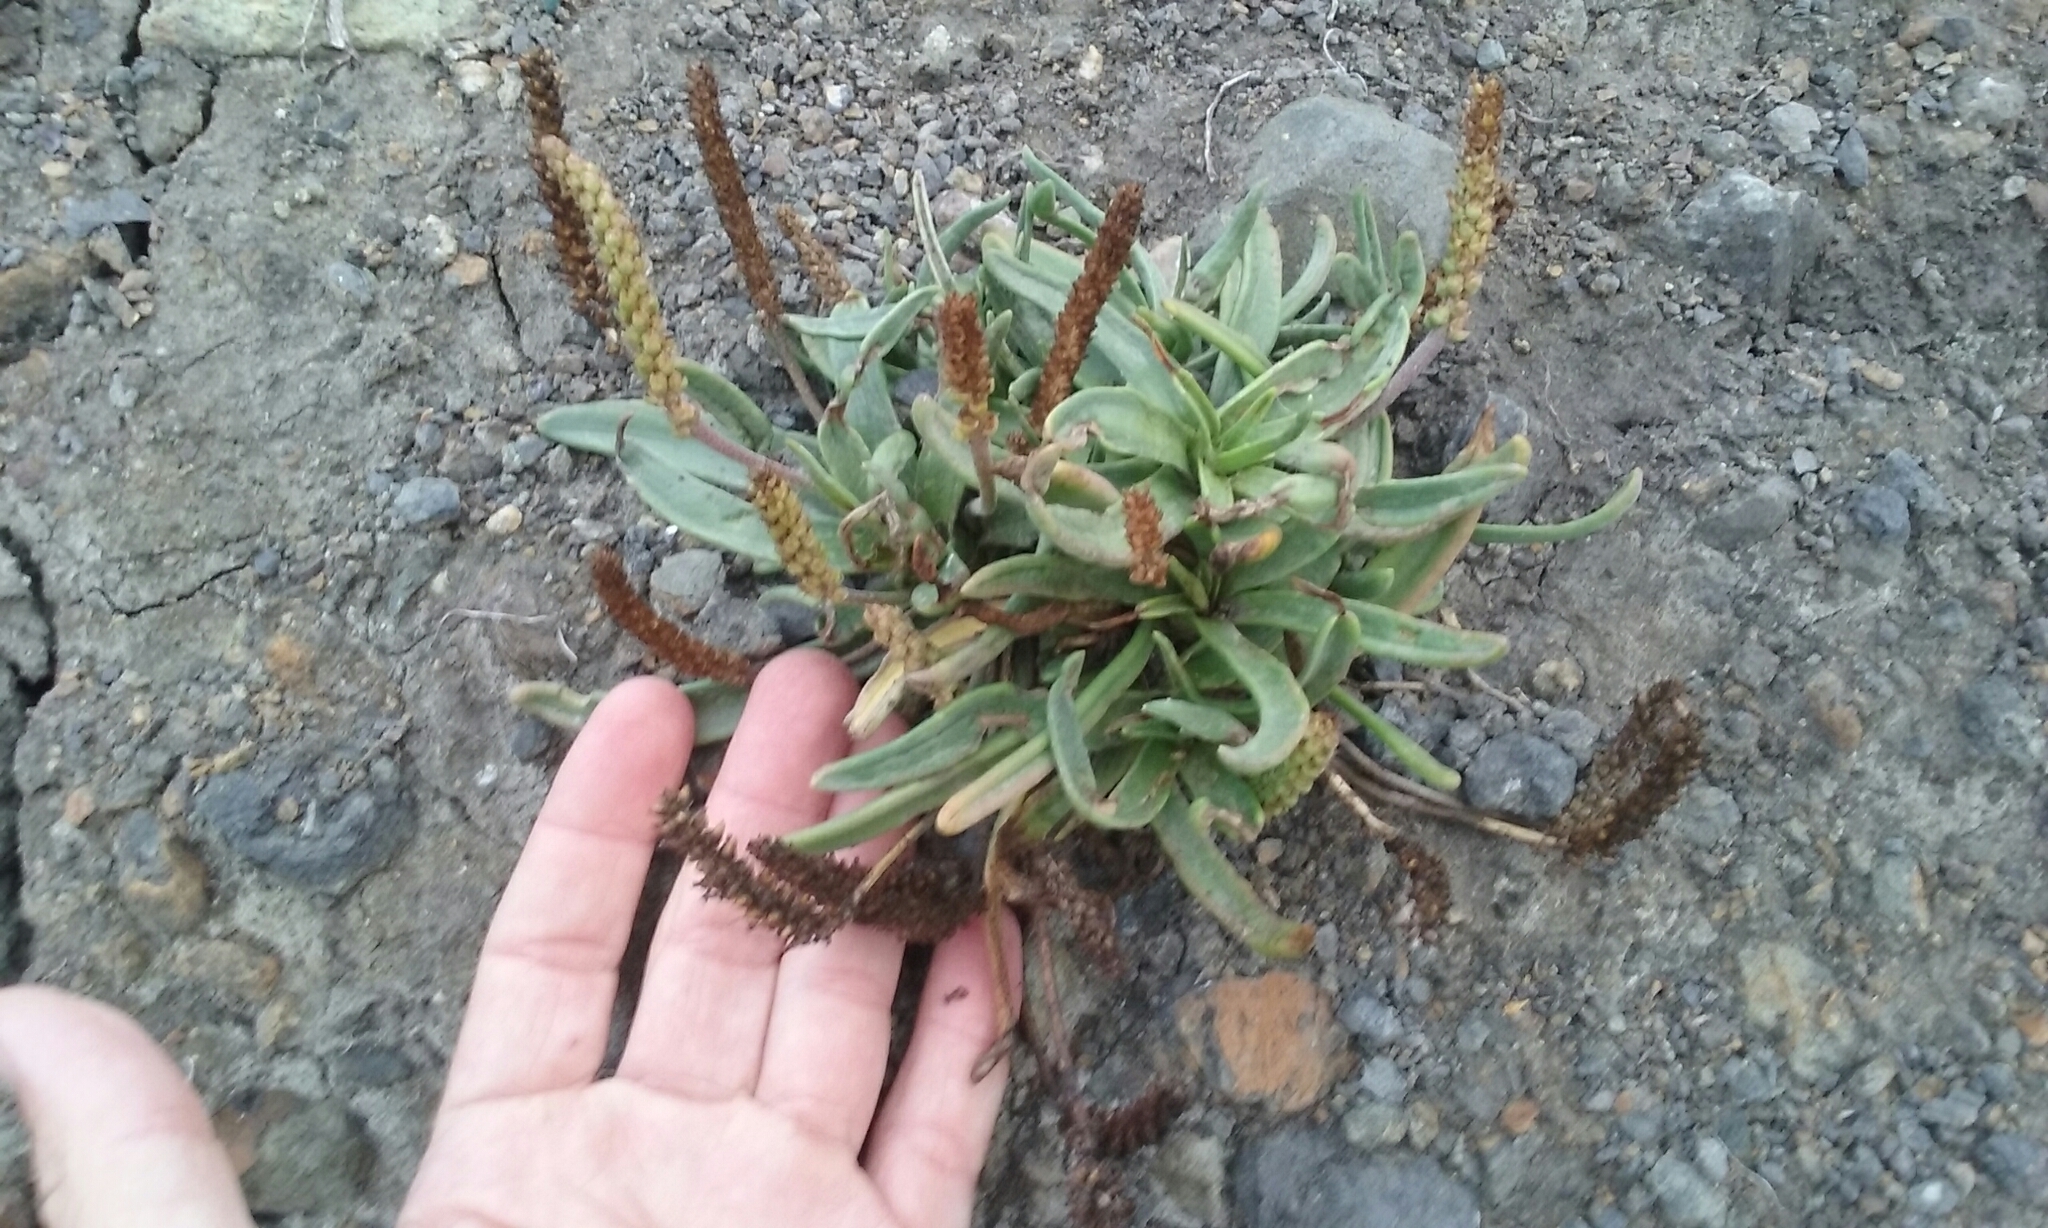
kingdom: Plantae
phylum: Tracheophyta
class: Magnoliopsida
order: Lamiales
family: Plantaginaceae
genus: Plantago
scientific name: Plantago maritima
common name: Sea plantain
